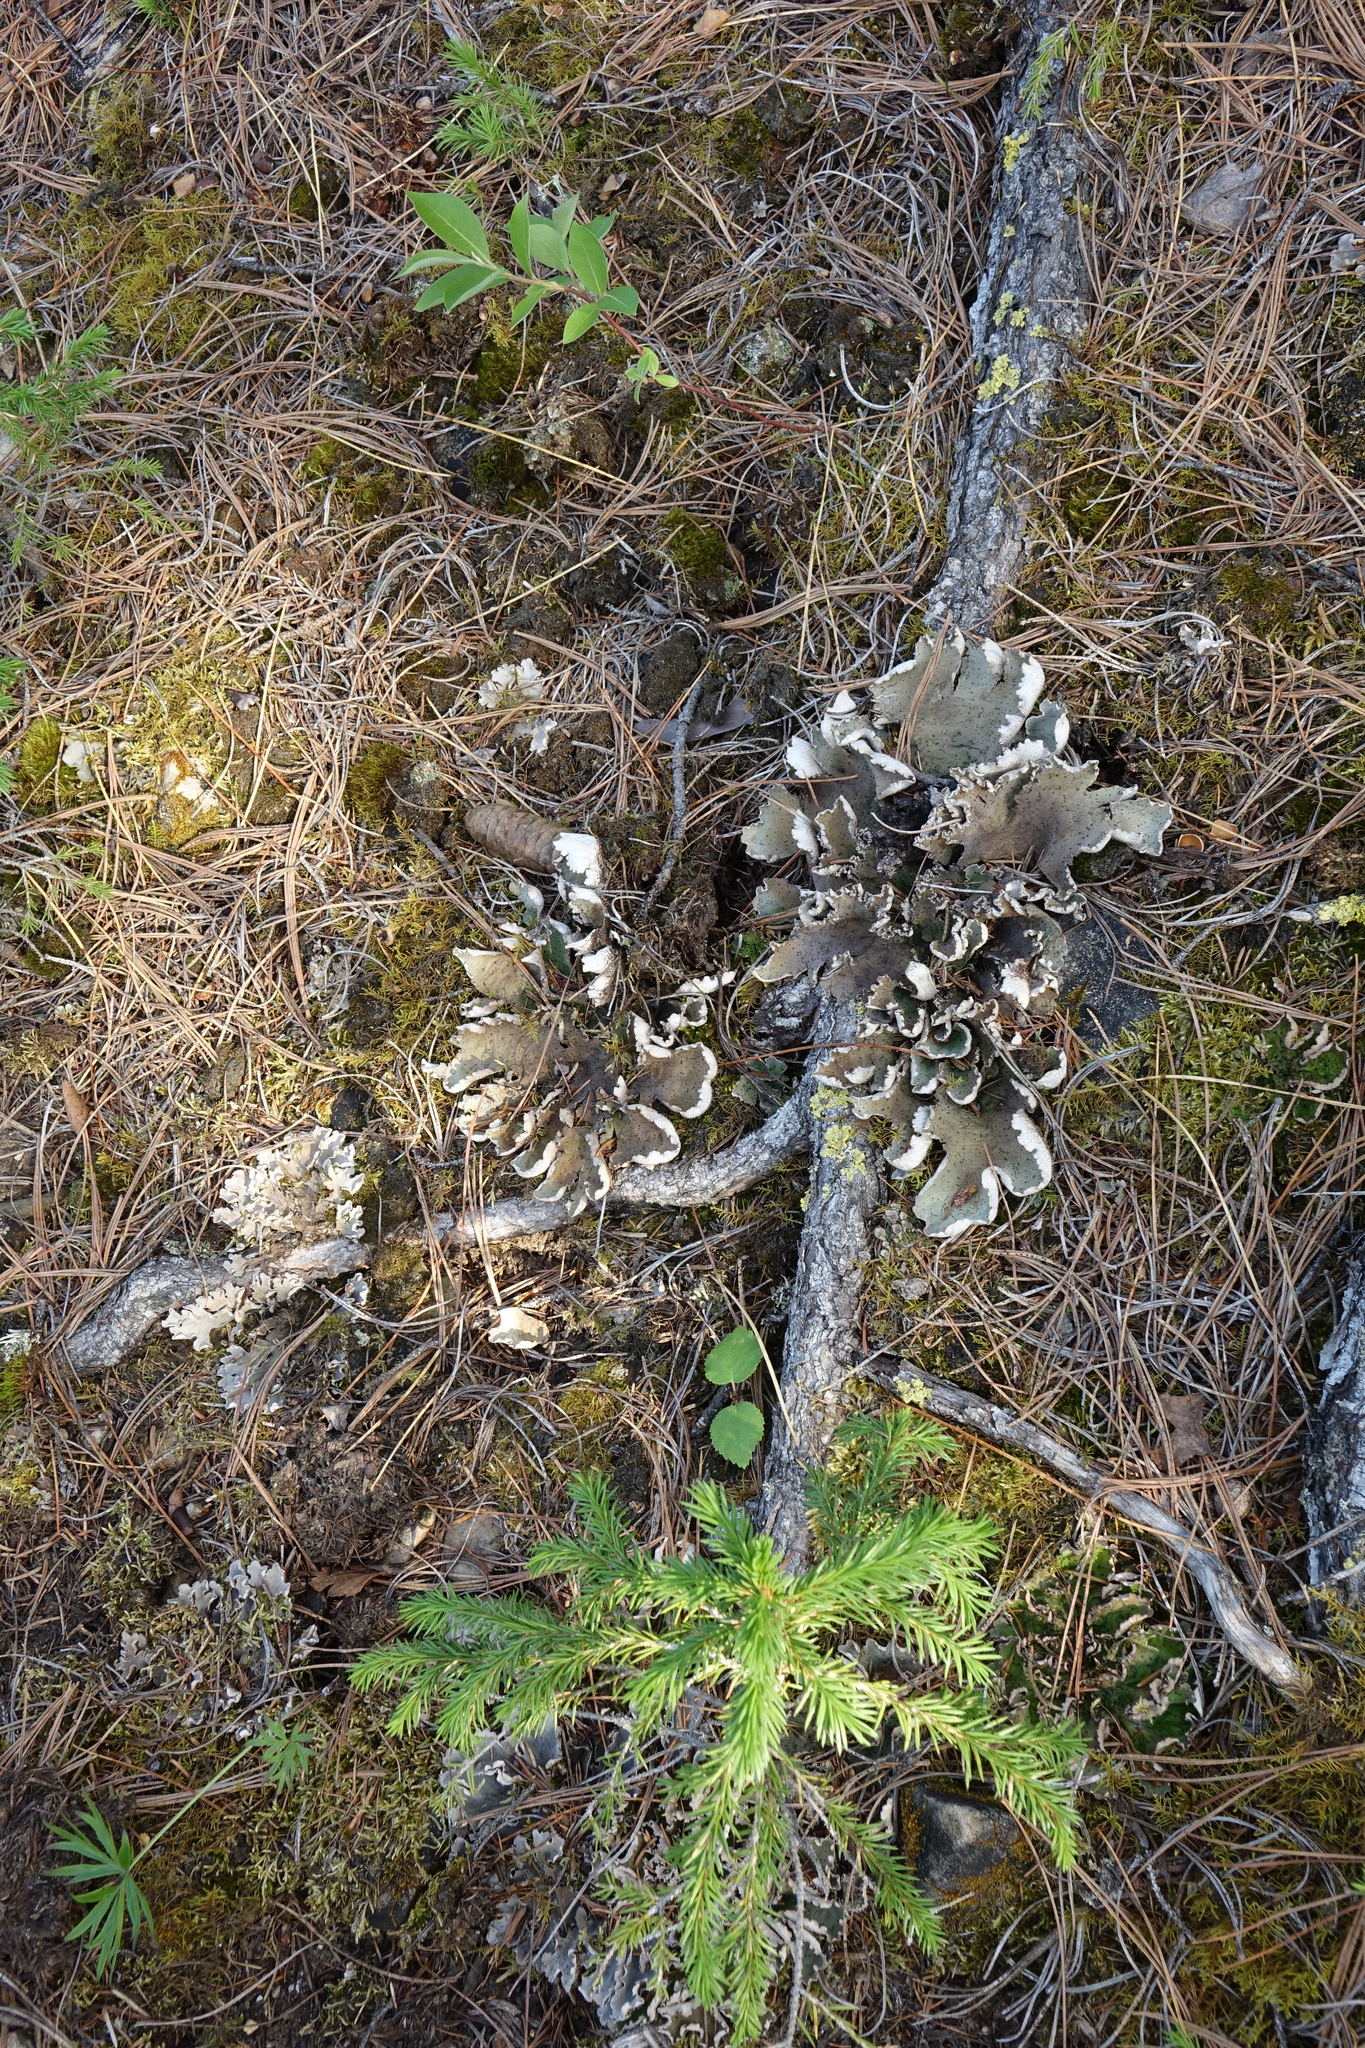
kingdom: Plantae
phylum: Tracheophyta
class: Pinopsida
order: Pinales
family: Pinaceae
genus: Picea
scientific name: Picea obovata
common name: Siberian spruce
